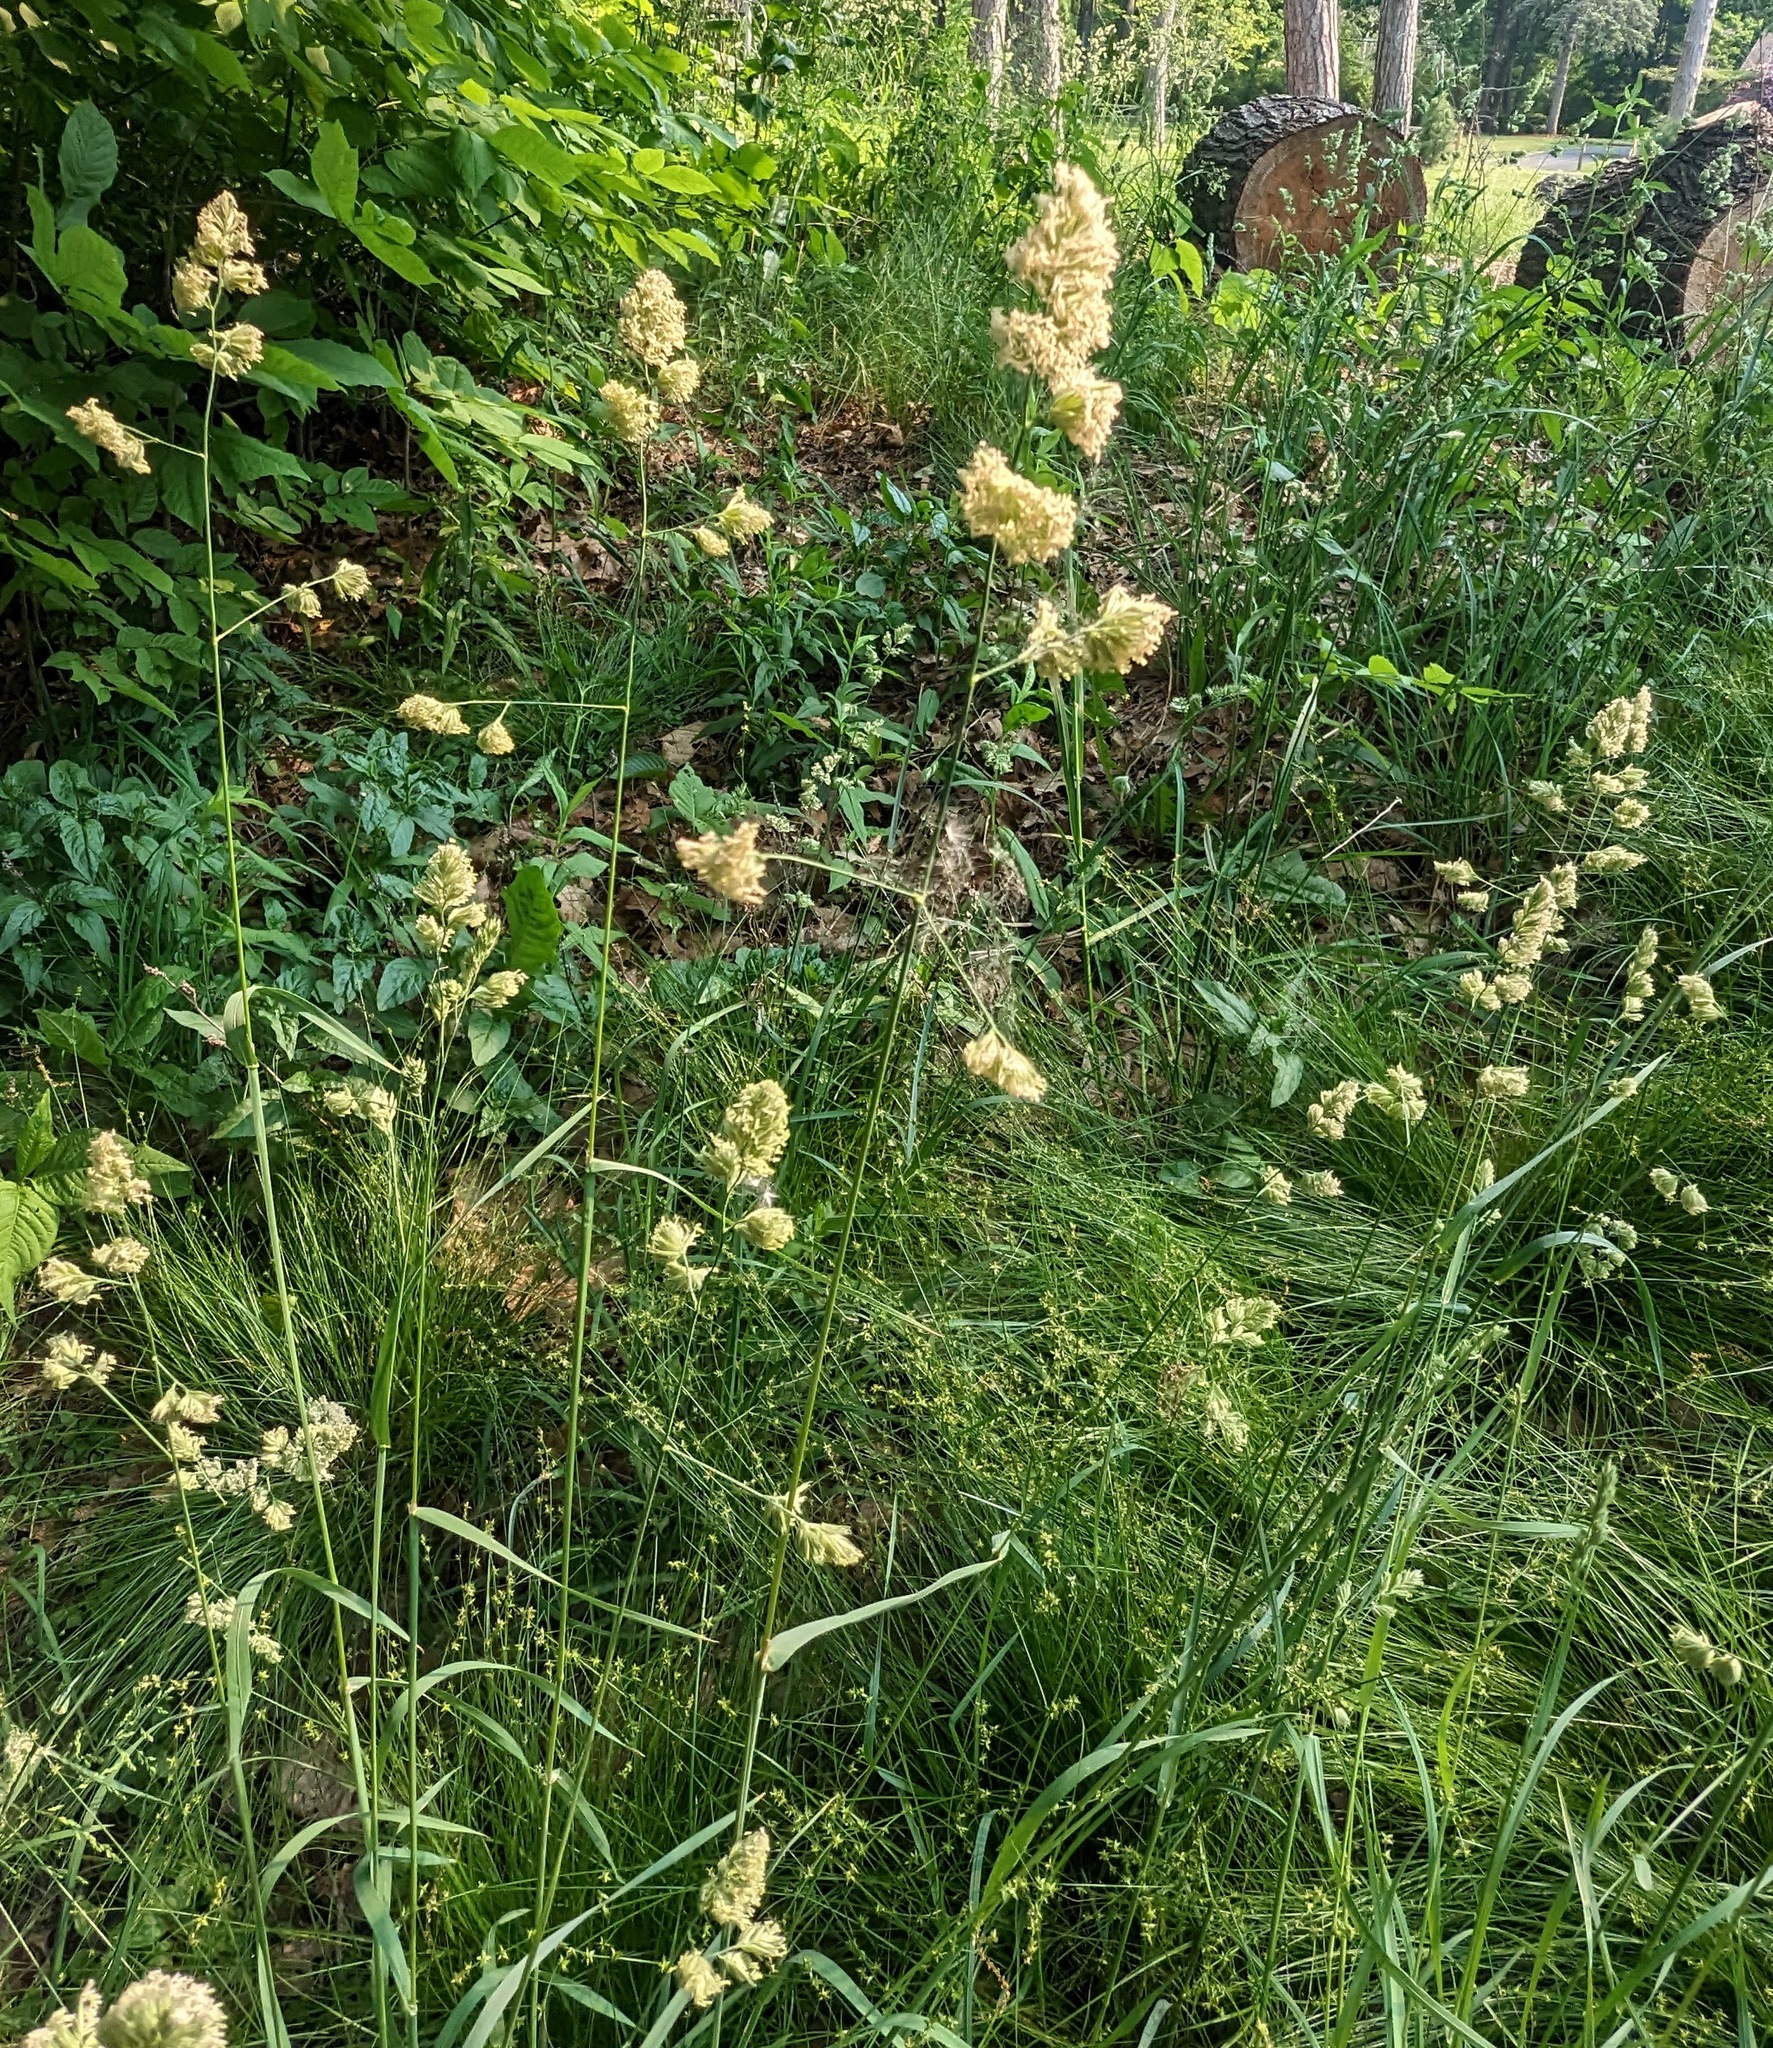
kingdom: Plantae
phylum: Tracheophyta
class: Liliopsida
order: Poales
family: Poaceae
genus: Dactylis
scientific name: Dactylis glomerata
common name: Orchardgrass
